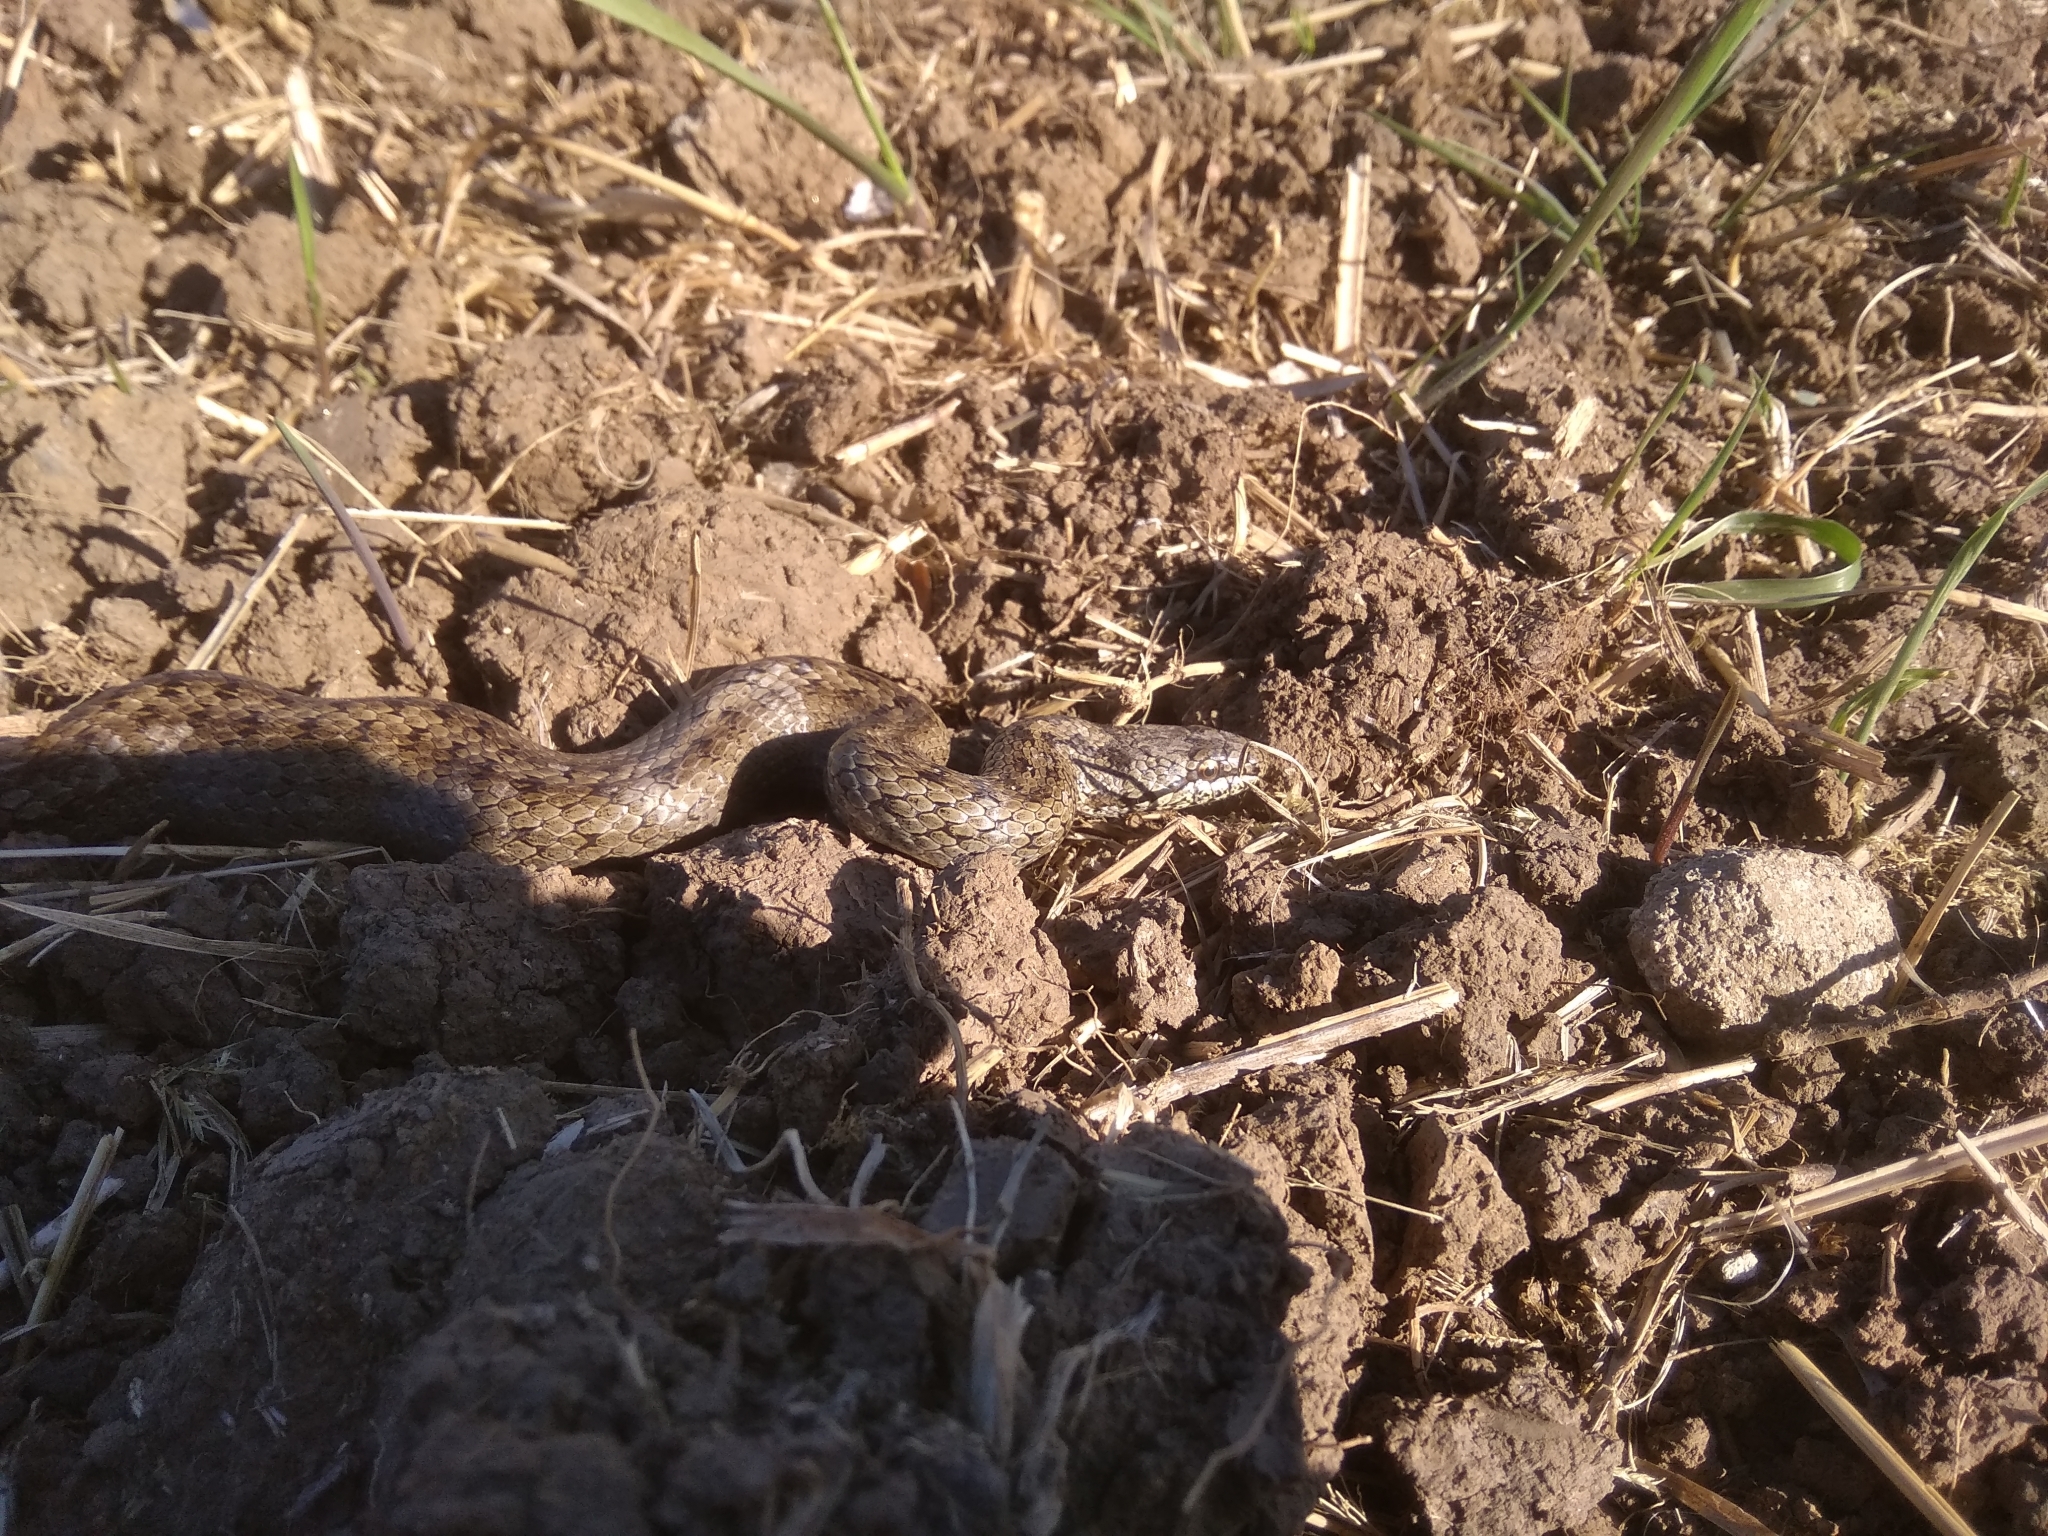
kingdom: Animalia
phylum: Chordata
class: Squamata
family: Colubridae
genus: Coronella
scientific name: Coronella austriaca
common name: Smooth snake
